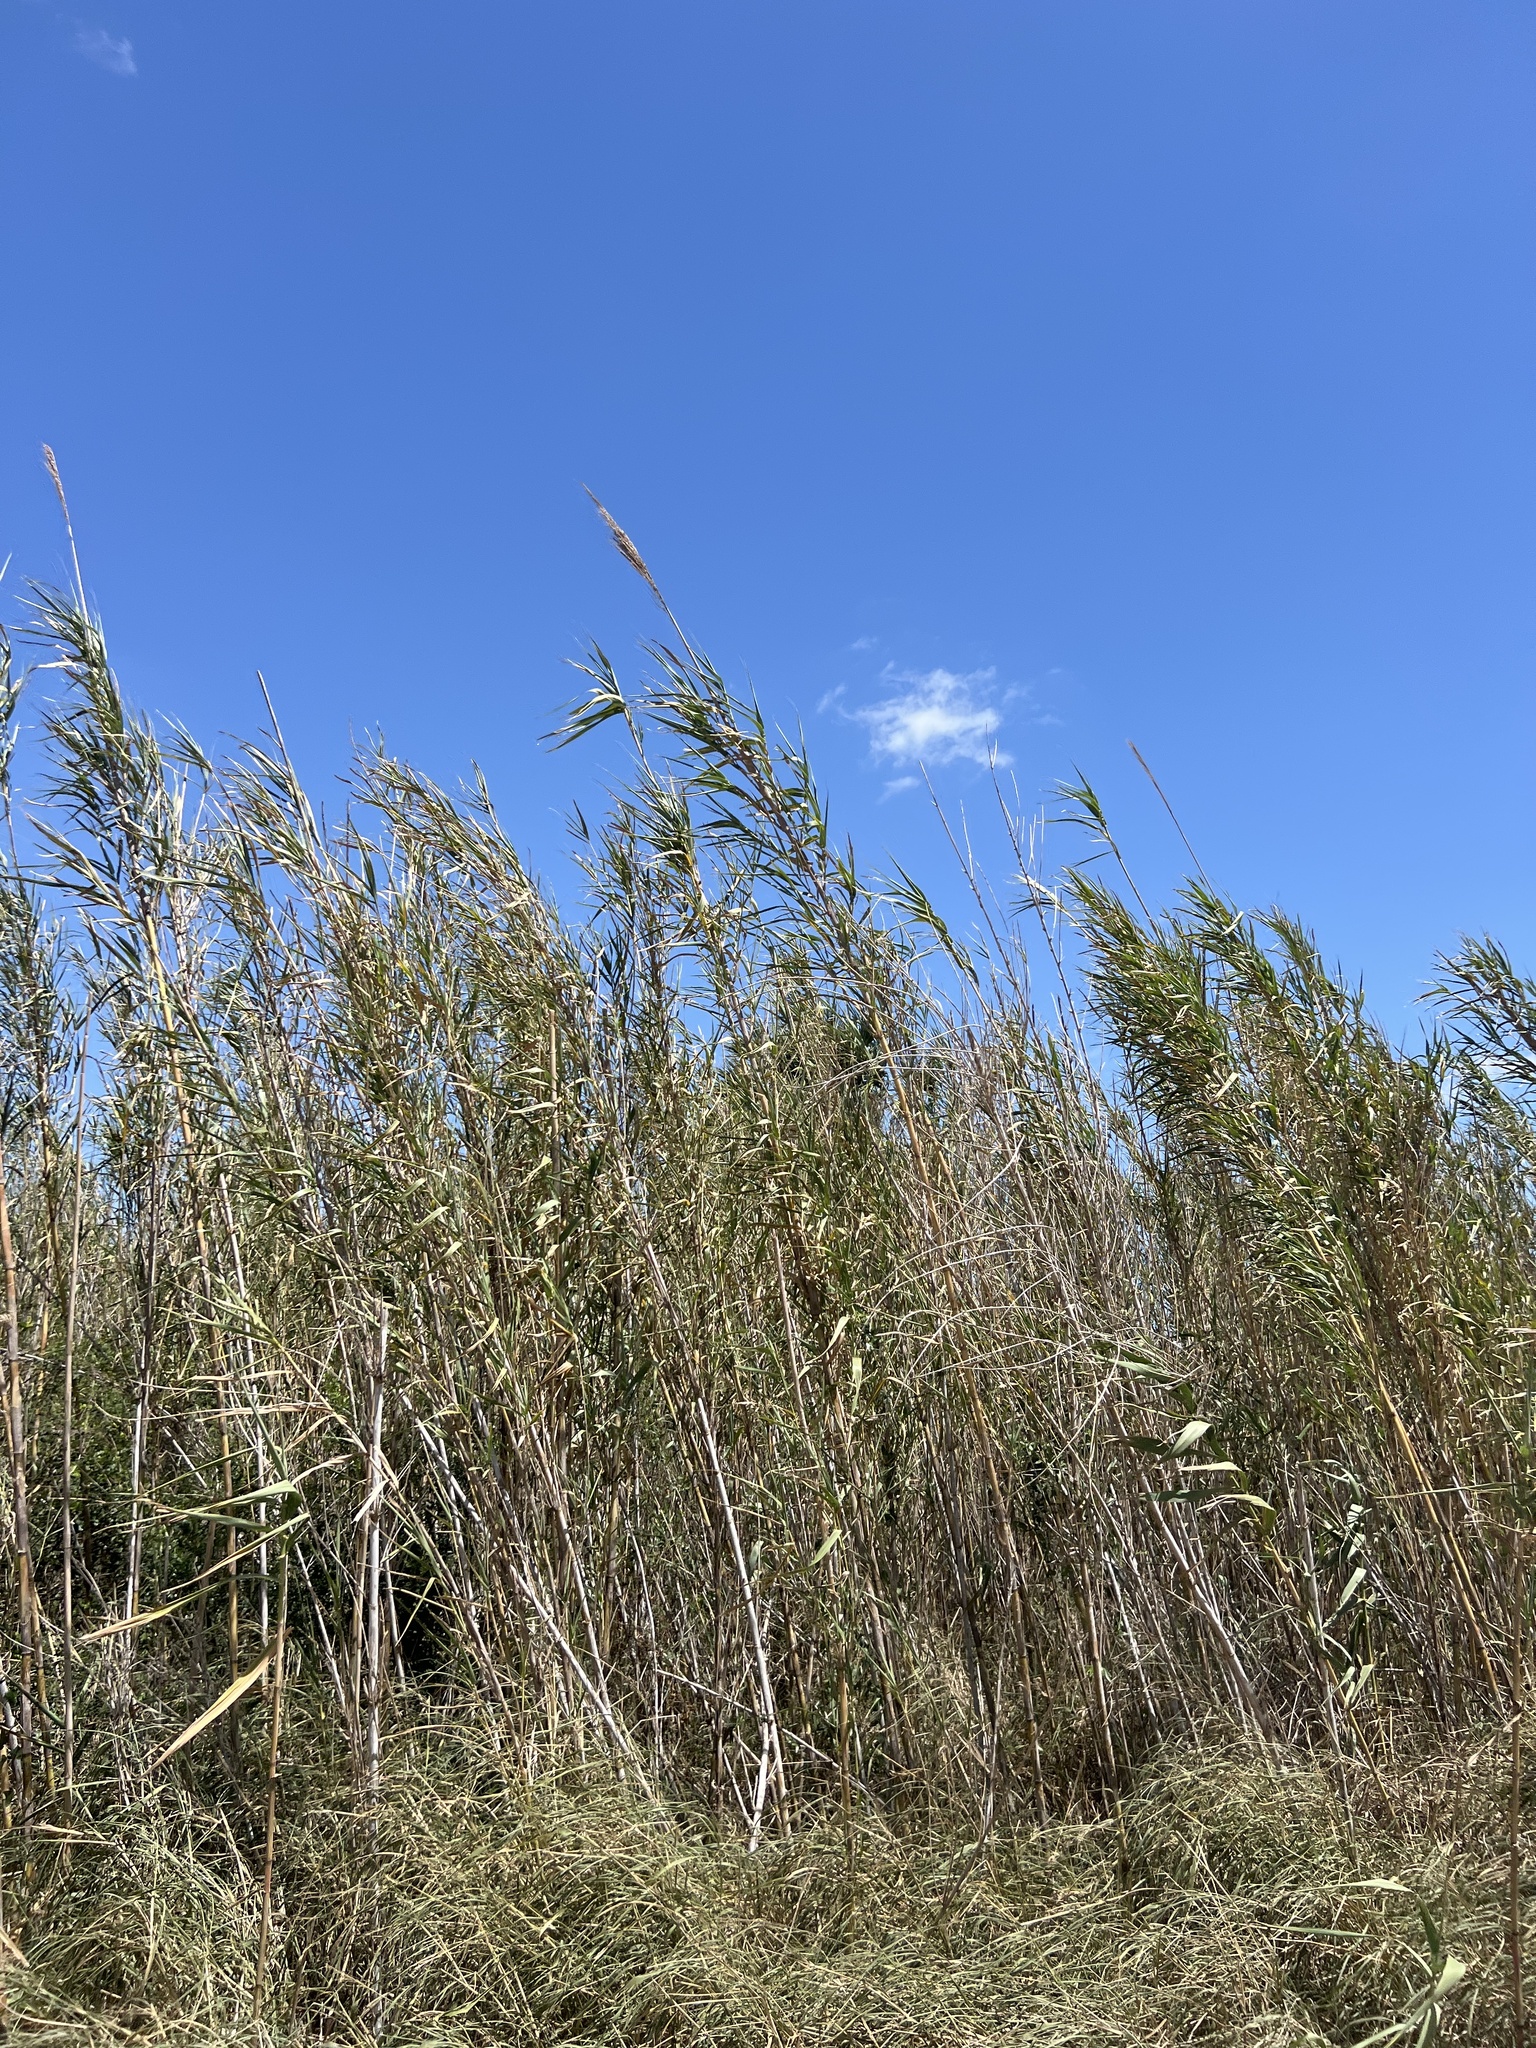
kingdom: Plantae
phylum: Tracheophyta
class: Liliopsida
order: Poales
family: Poaceae
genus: Arundo
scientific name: Arundo donax
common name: Giant reed
